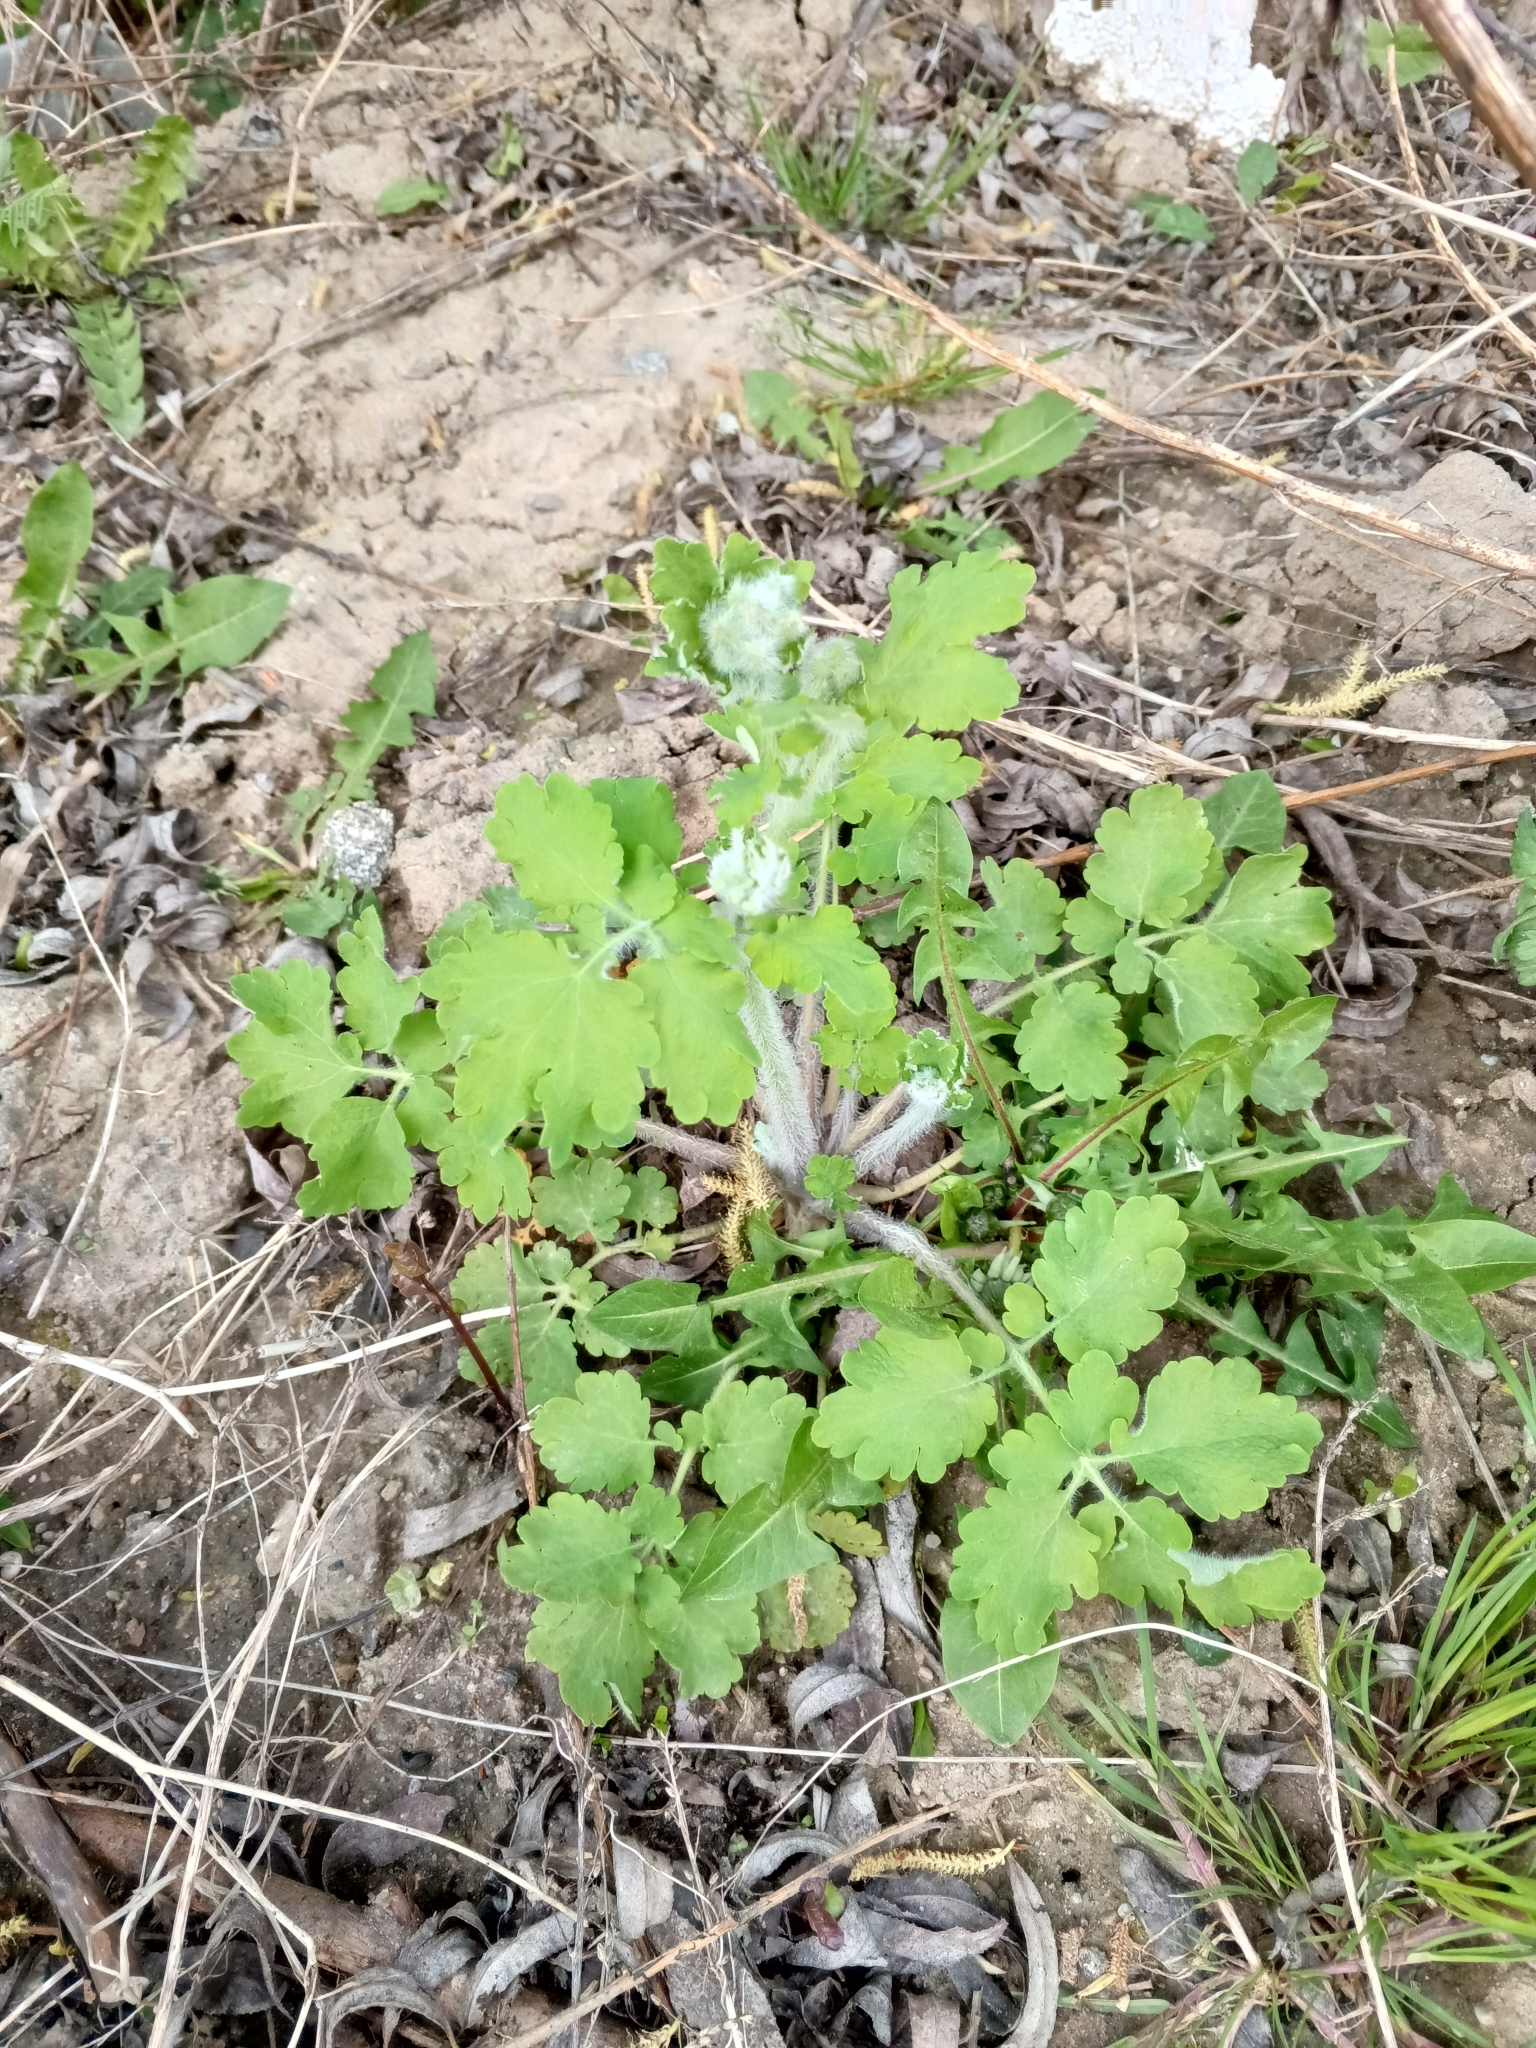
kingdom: Plantae
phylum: Tracheophyta
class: Magnoliopsida
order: Ranunculales
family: Papaveraceae
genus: Chelidonium
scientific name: Chelidonium majus
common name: Greater celandine
